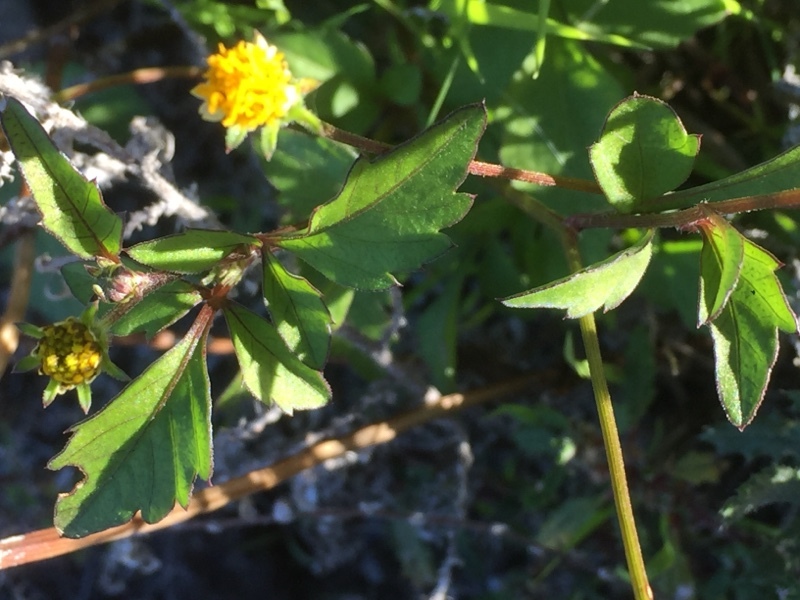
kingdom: Plantae
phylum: Tracheophyta
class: Magnoliopsida
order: Asterales
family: Asteraceae
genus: Bidens
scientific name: Bidens pilosa
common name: Black-jack
